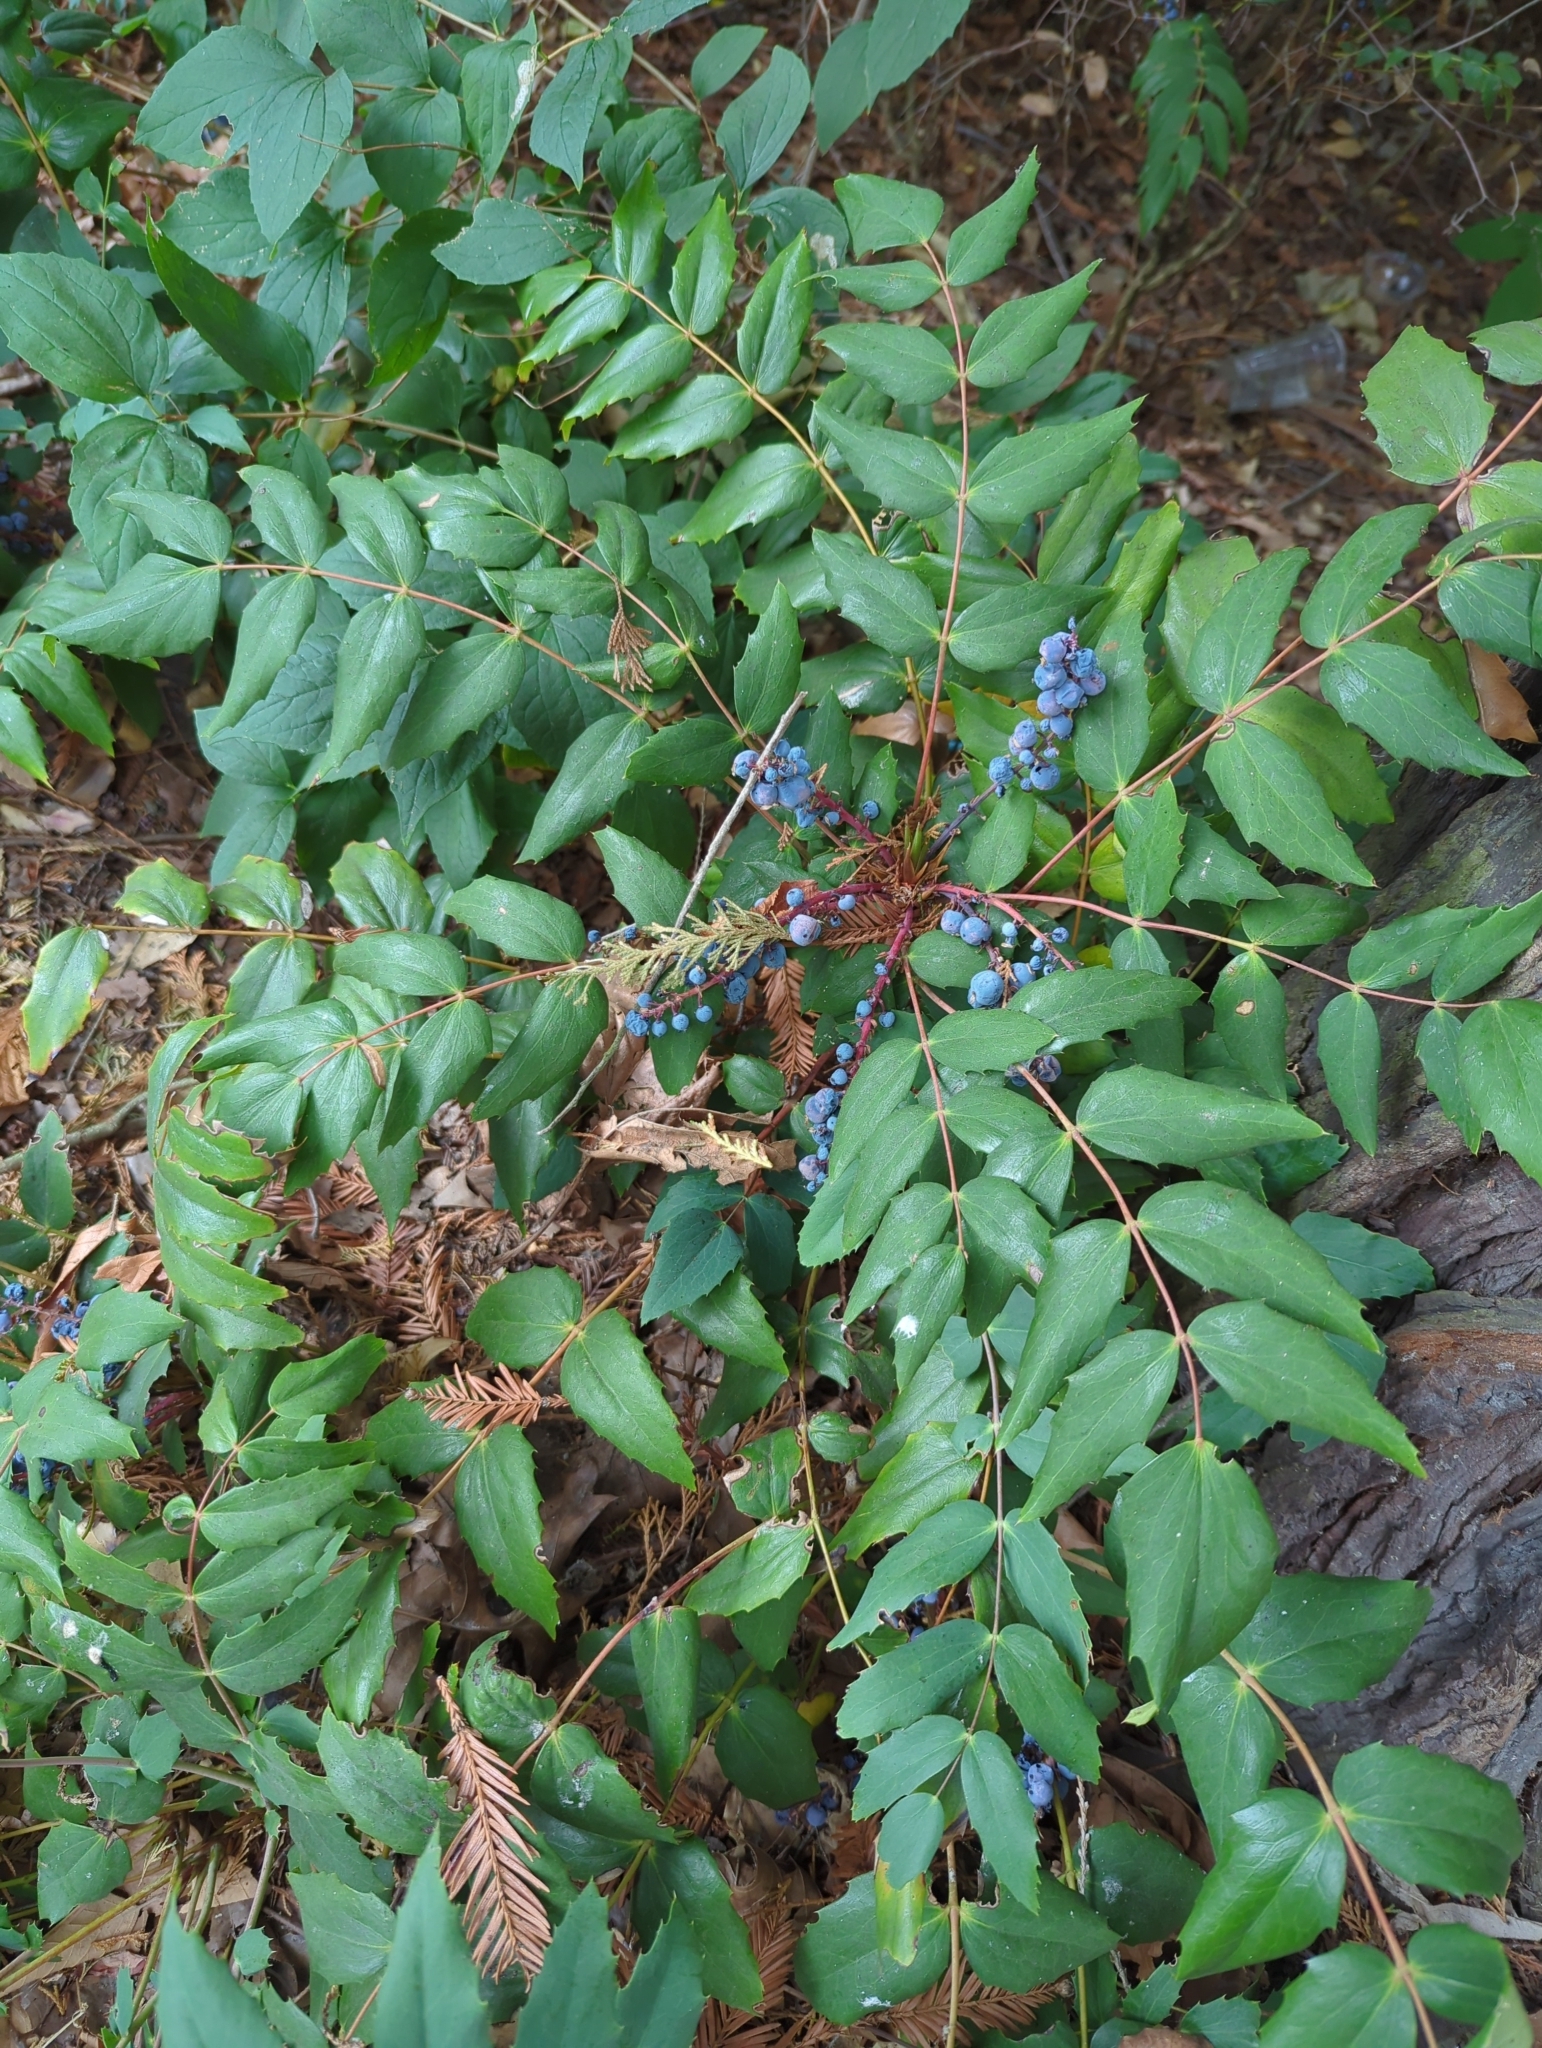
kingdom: Plantae
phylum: Tracheophyta
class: Magnoliopsida
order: Ranunculales
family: Berberidaceae
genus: Mahonia
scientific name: Mahonia nervosa
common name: Cascade oregon-grape
